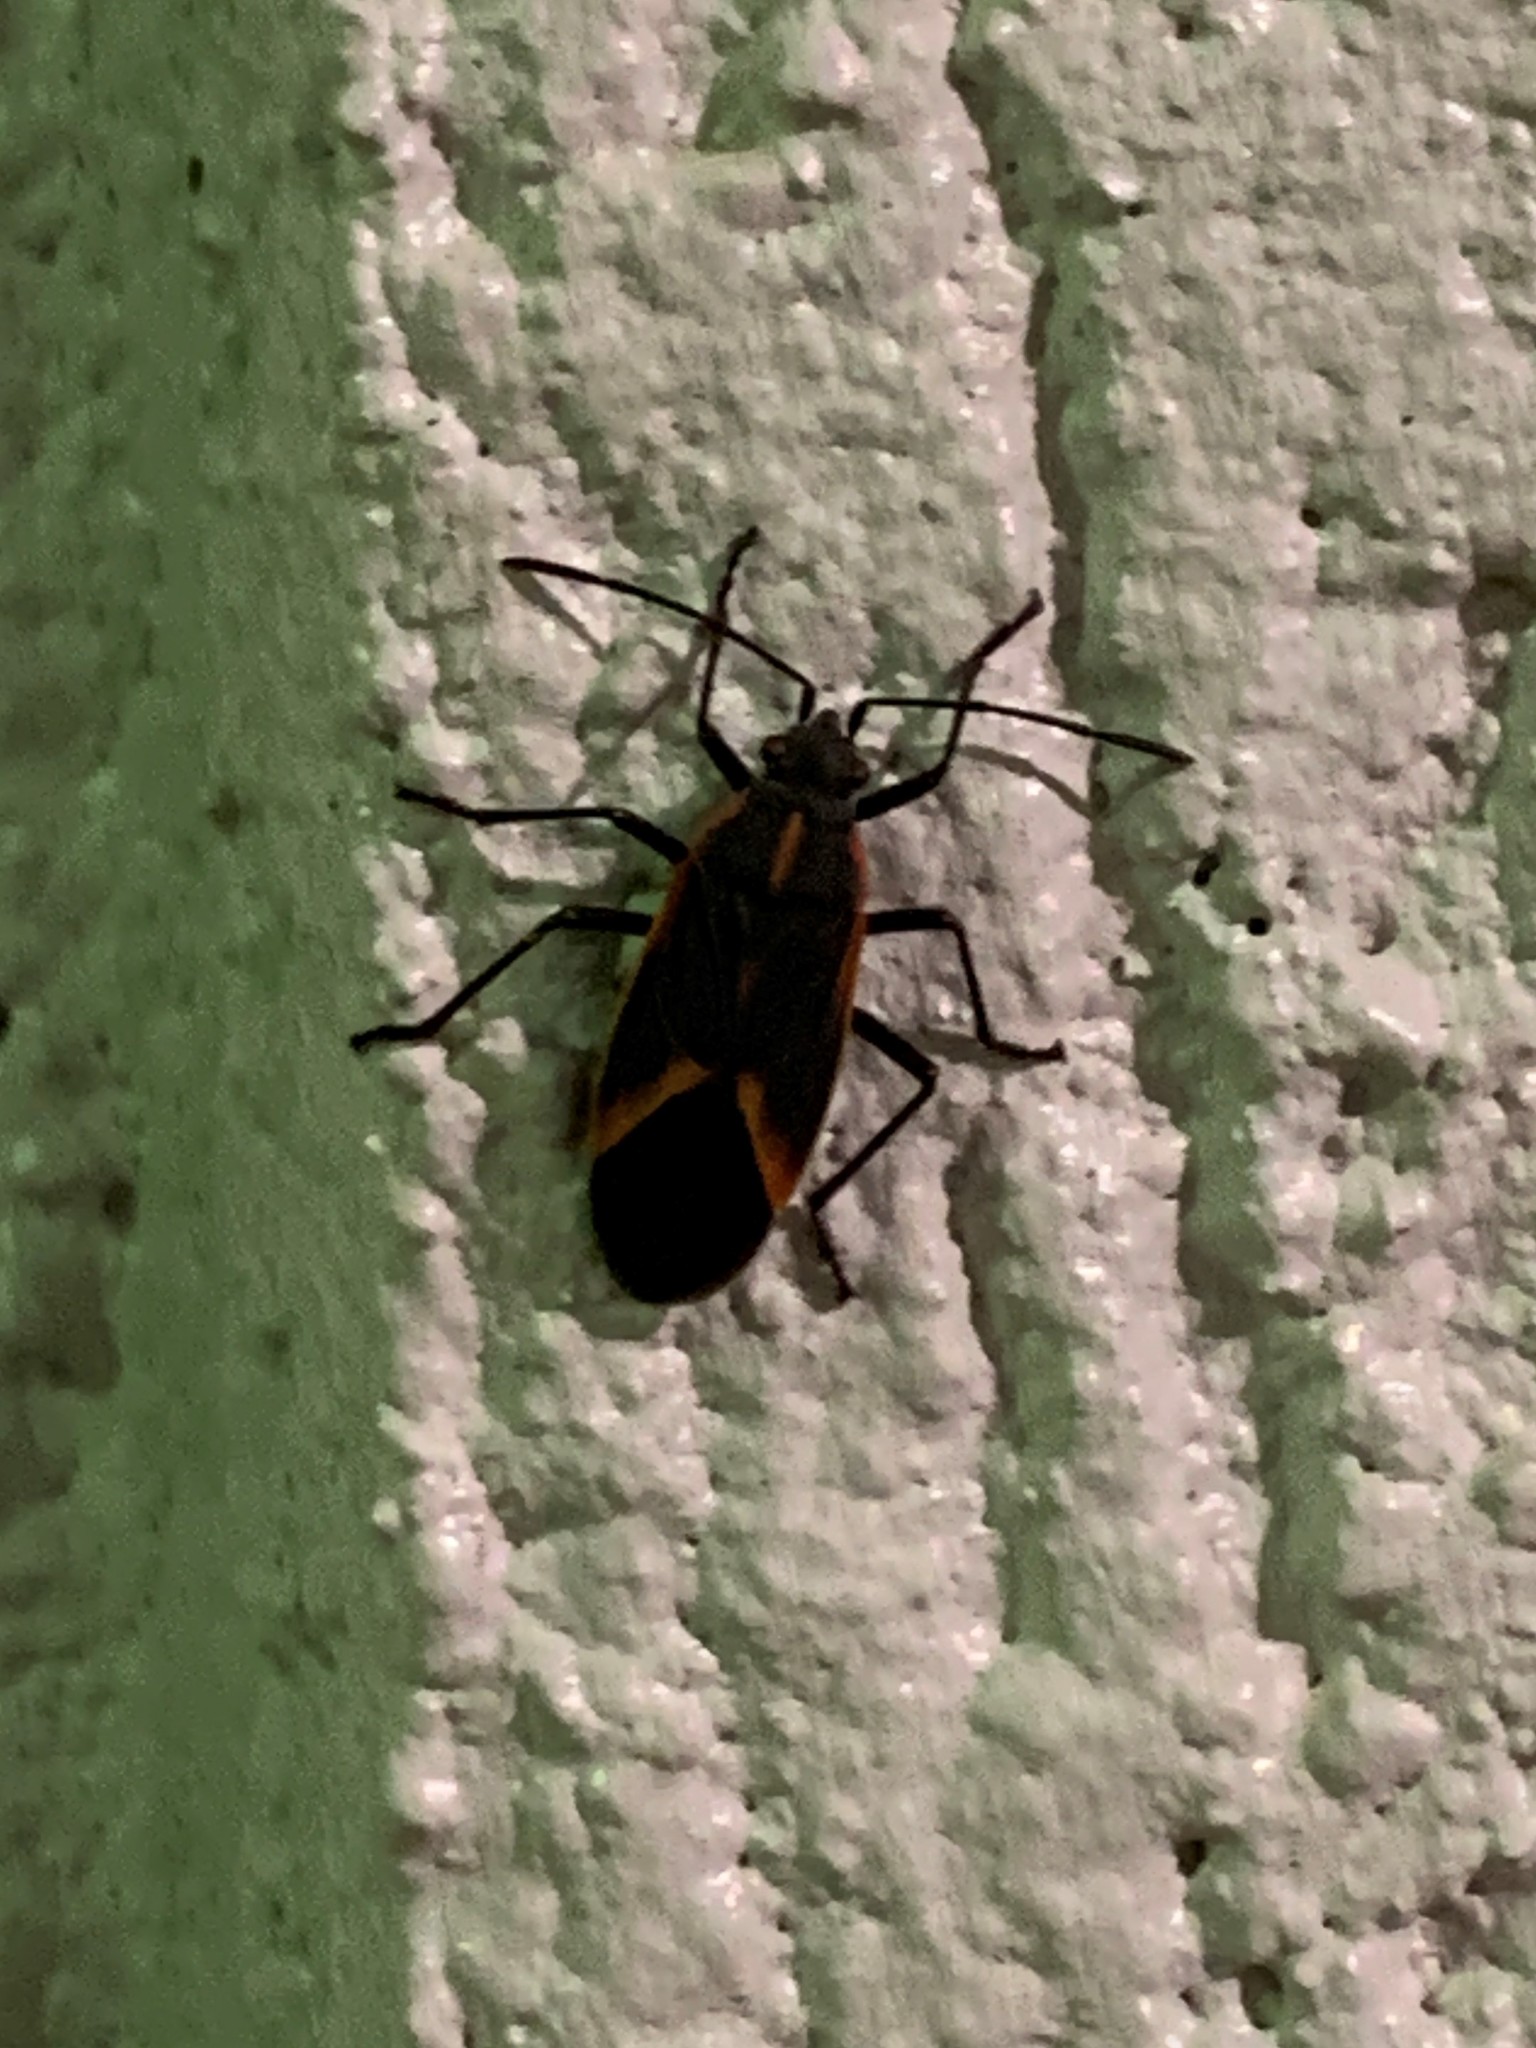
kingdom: Animalia
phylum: Arthropoda
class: Insecta
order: Hemiptera
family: Rhopalidae
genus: Boisea
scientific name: Boisea trivittata
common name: Boxelder bug
